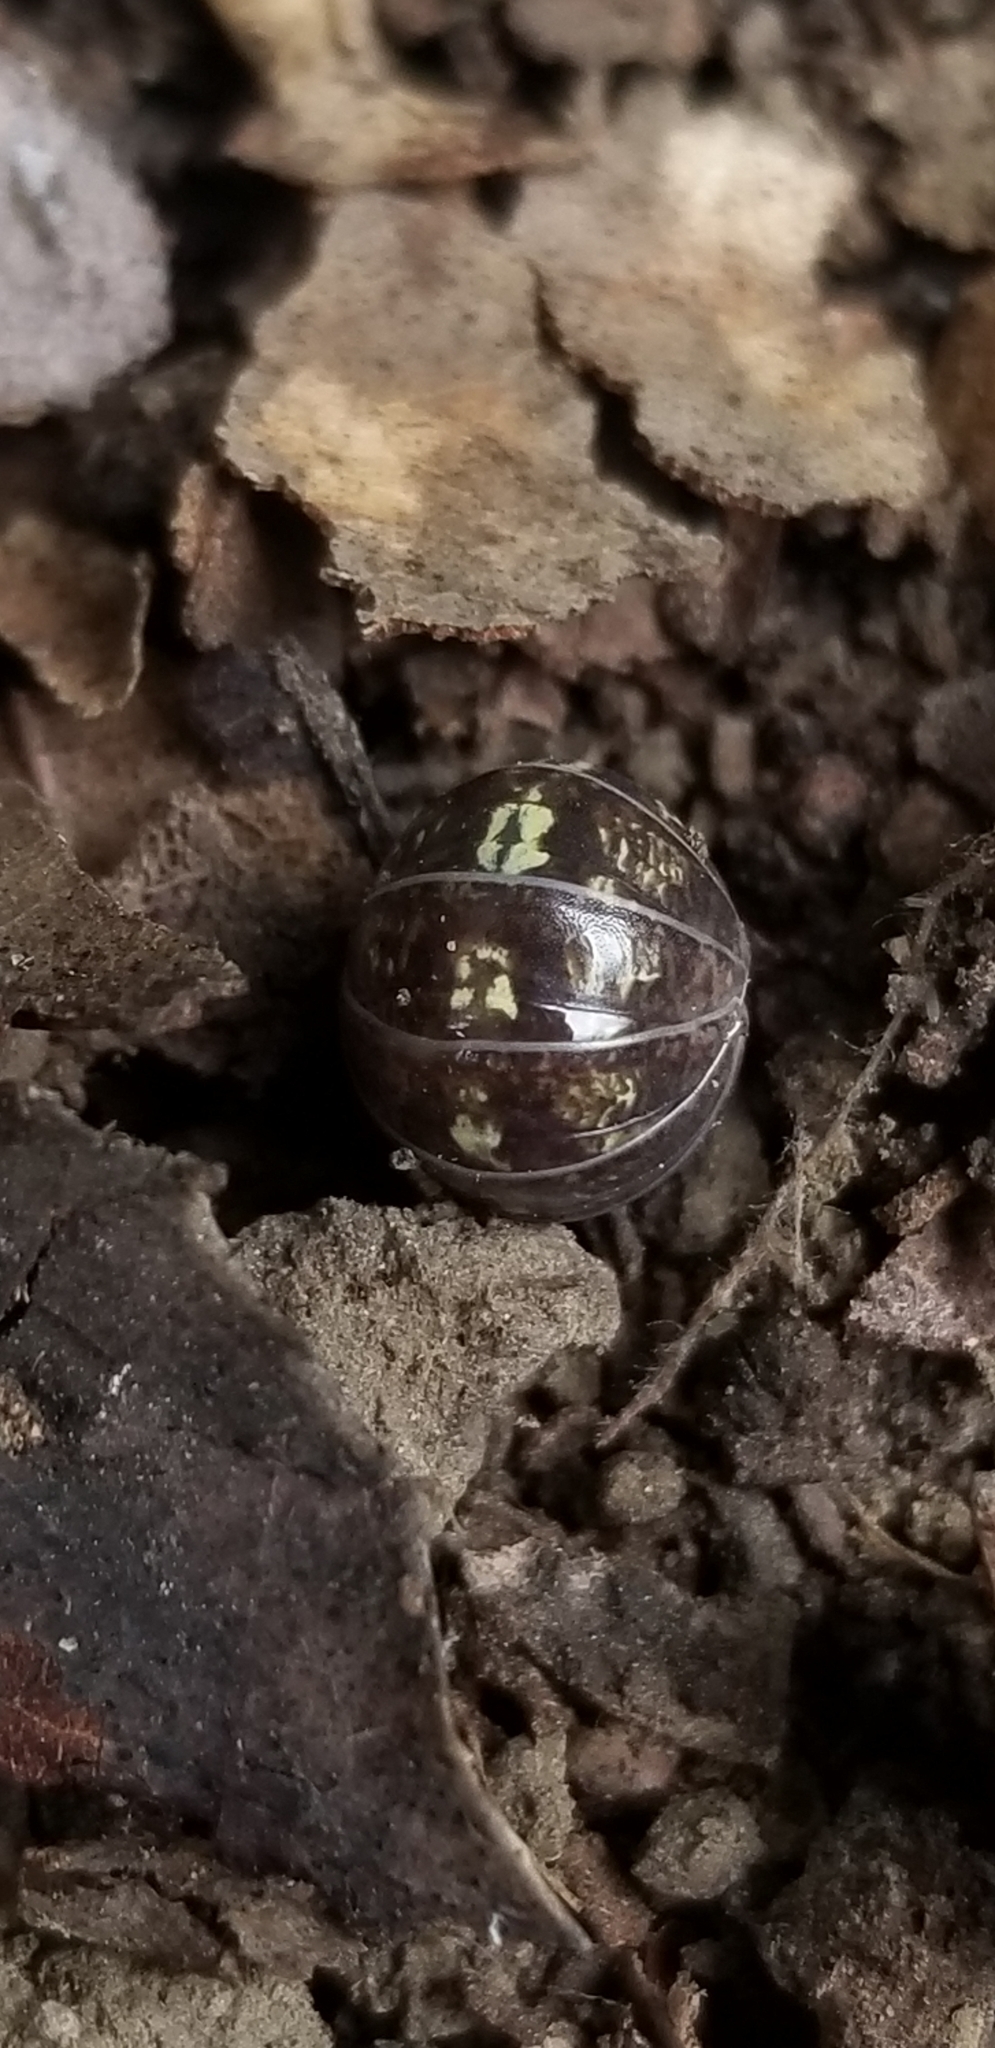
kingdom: Animalia
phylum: Arthropoda
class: Malacostraca
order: Isopoda
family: Armadillidiidae
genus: Armadillidium
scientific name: Armadillidium vulgare
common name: Common pill woodlouse
